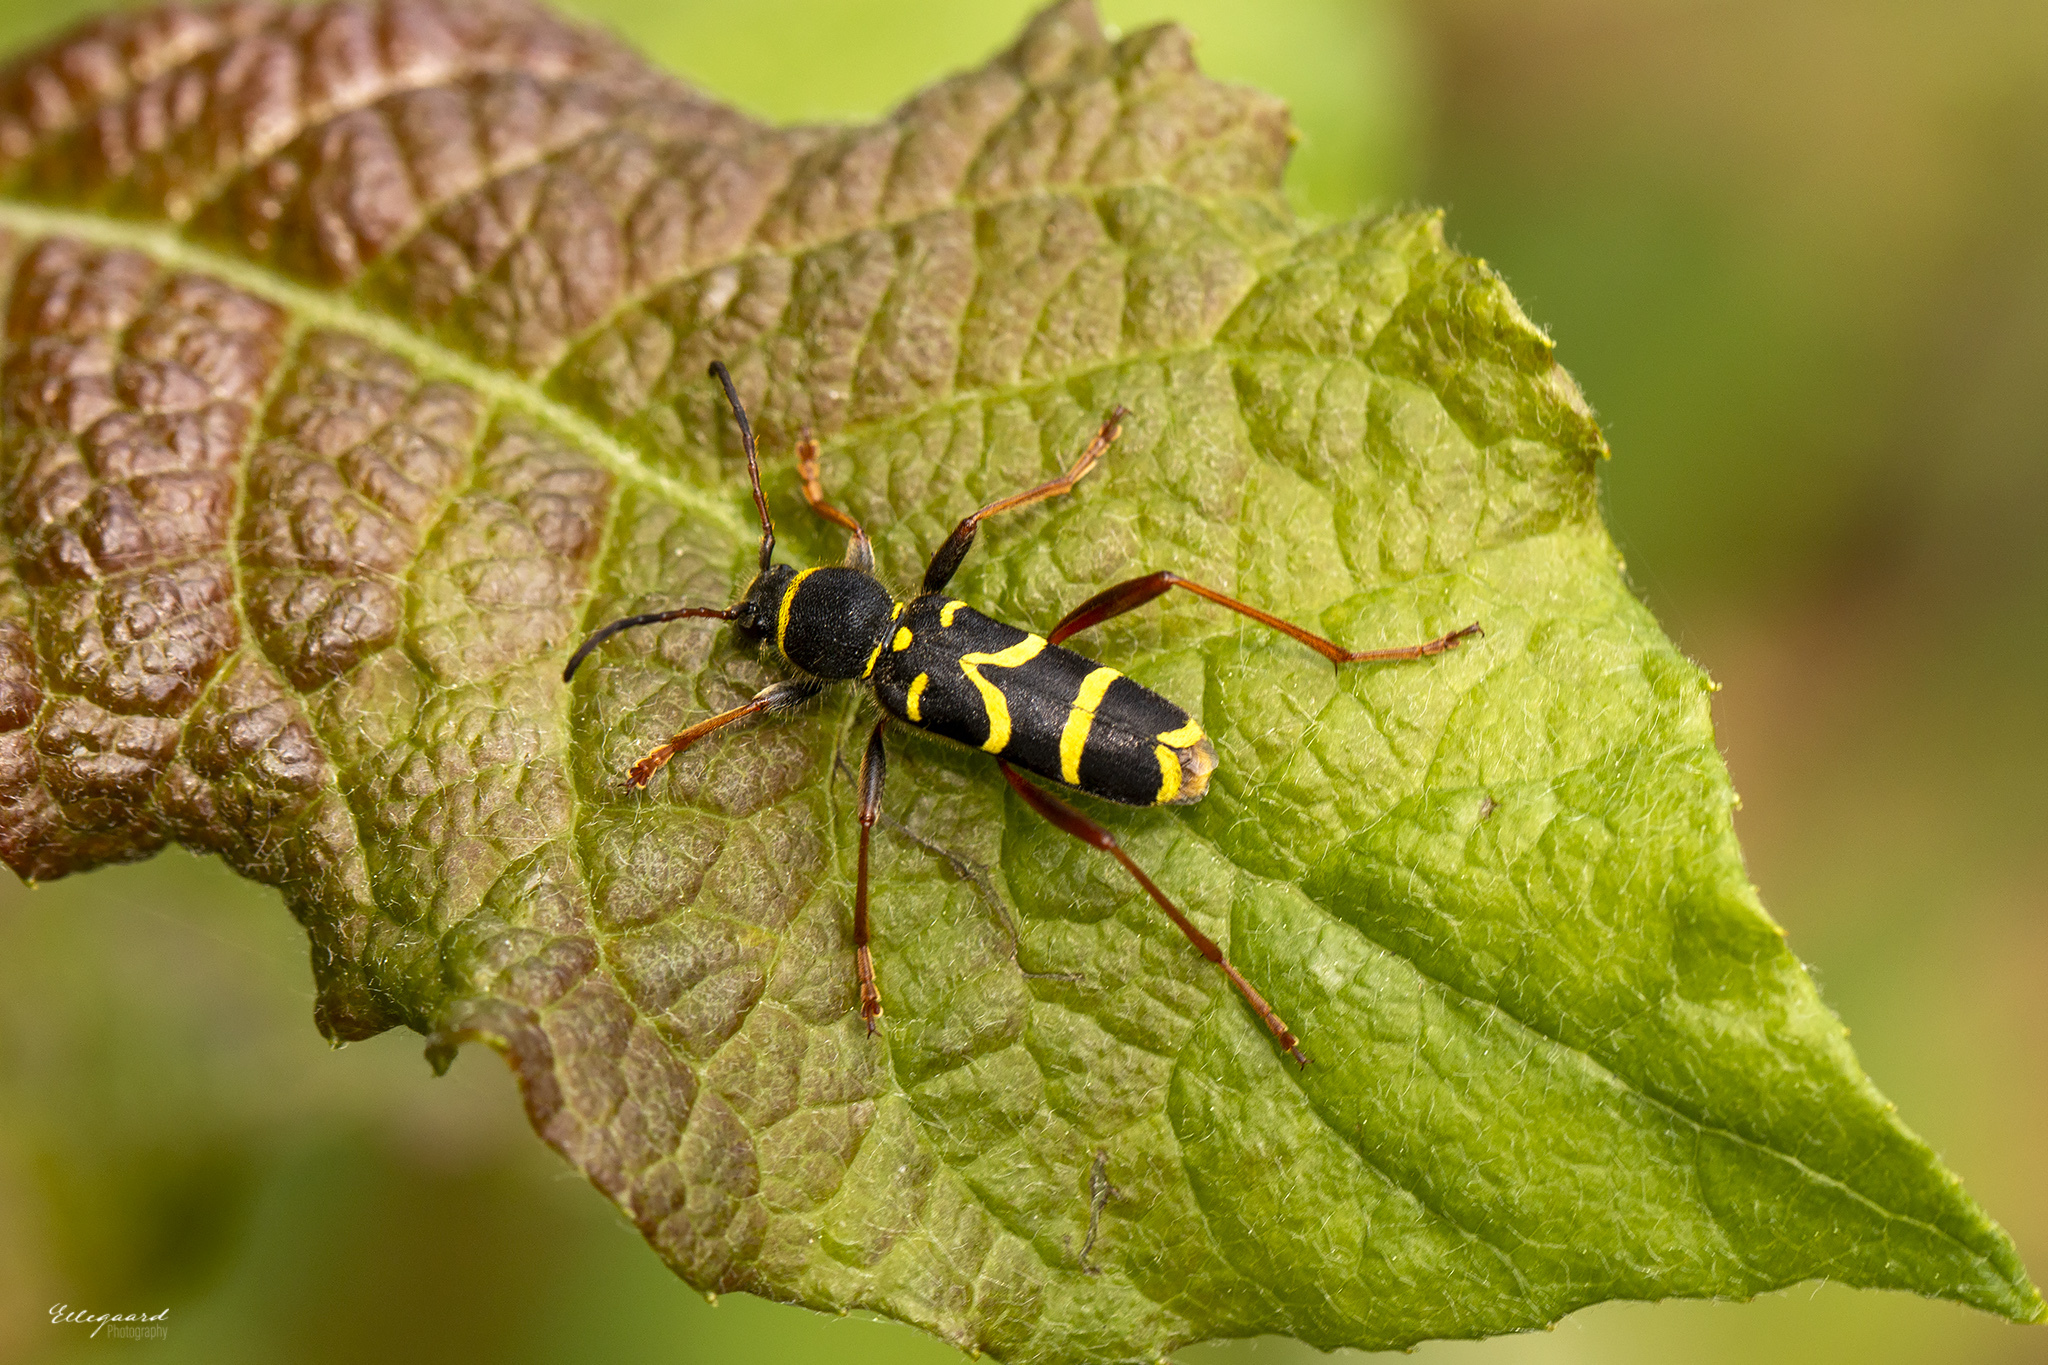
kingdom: Animalia
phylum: Arthropoda
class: Insecta
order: Coleoptera
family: Cerambycidae
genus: Clytus
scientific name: Clytus arietis
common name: Wasp beetle
